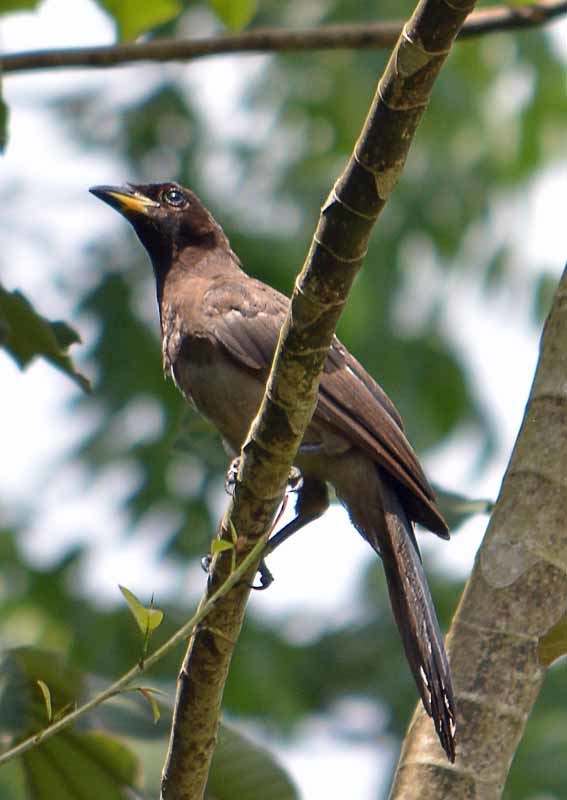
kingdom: Animalia
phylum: Chordata
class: Aves
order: Passeriformes
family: Corvidae
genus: Psilorhinus
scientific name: Psilorhinus morio
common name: Brown jay
